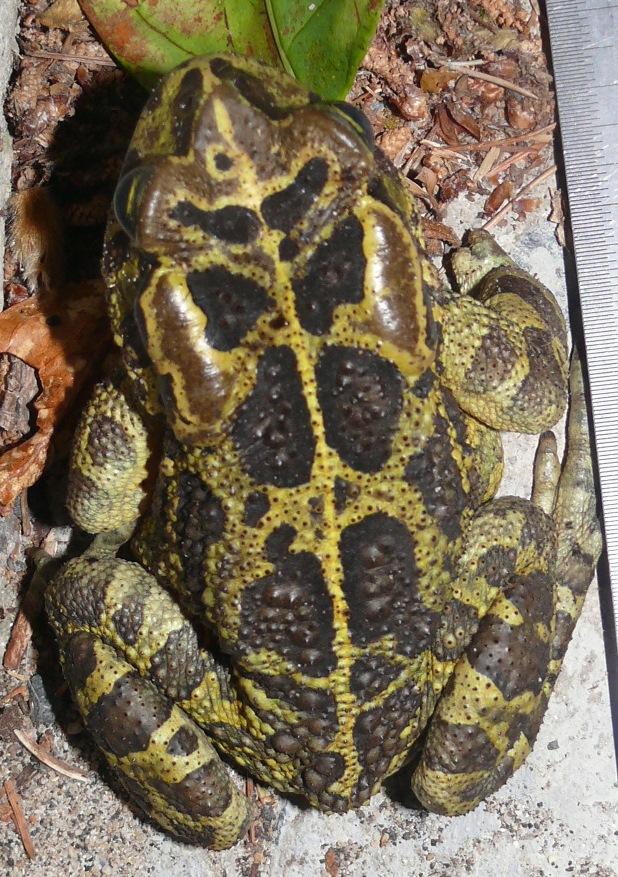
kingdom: Animalia
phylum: Chordata
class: Amphibia
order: Anura
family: Bufonidae
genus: Sclerophrys
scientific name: Sclerophrys pantherina
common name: Panther toad
